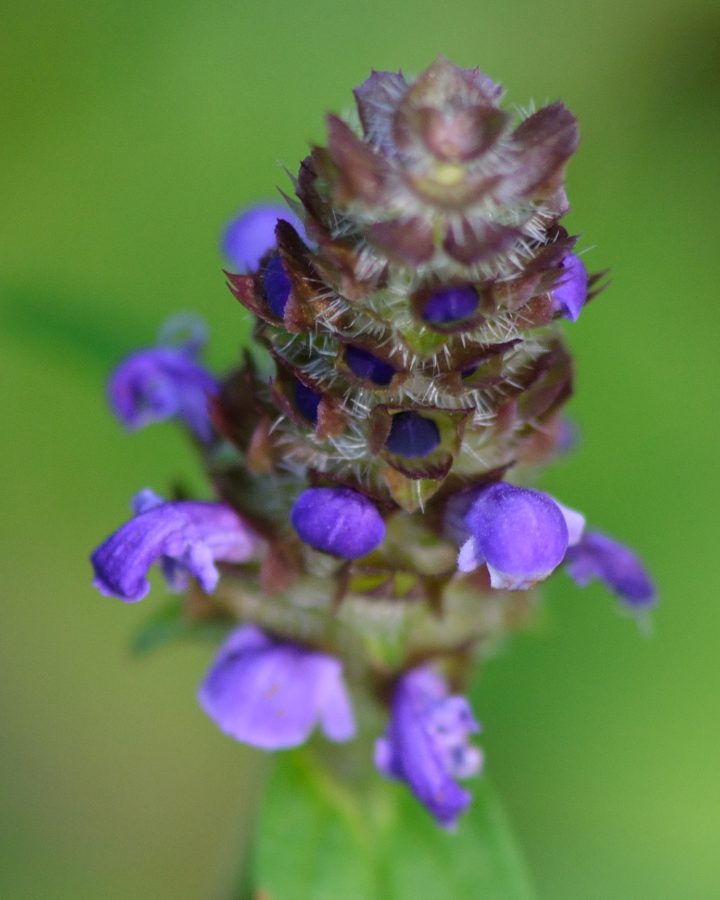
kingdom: Plantae
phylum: Tracheophyta
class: Magnoliopsida
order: Lamiales
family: Lamiaceae
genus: Prunella
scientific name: Prunella vulgaris
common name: Heal-all
